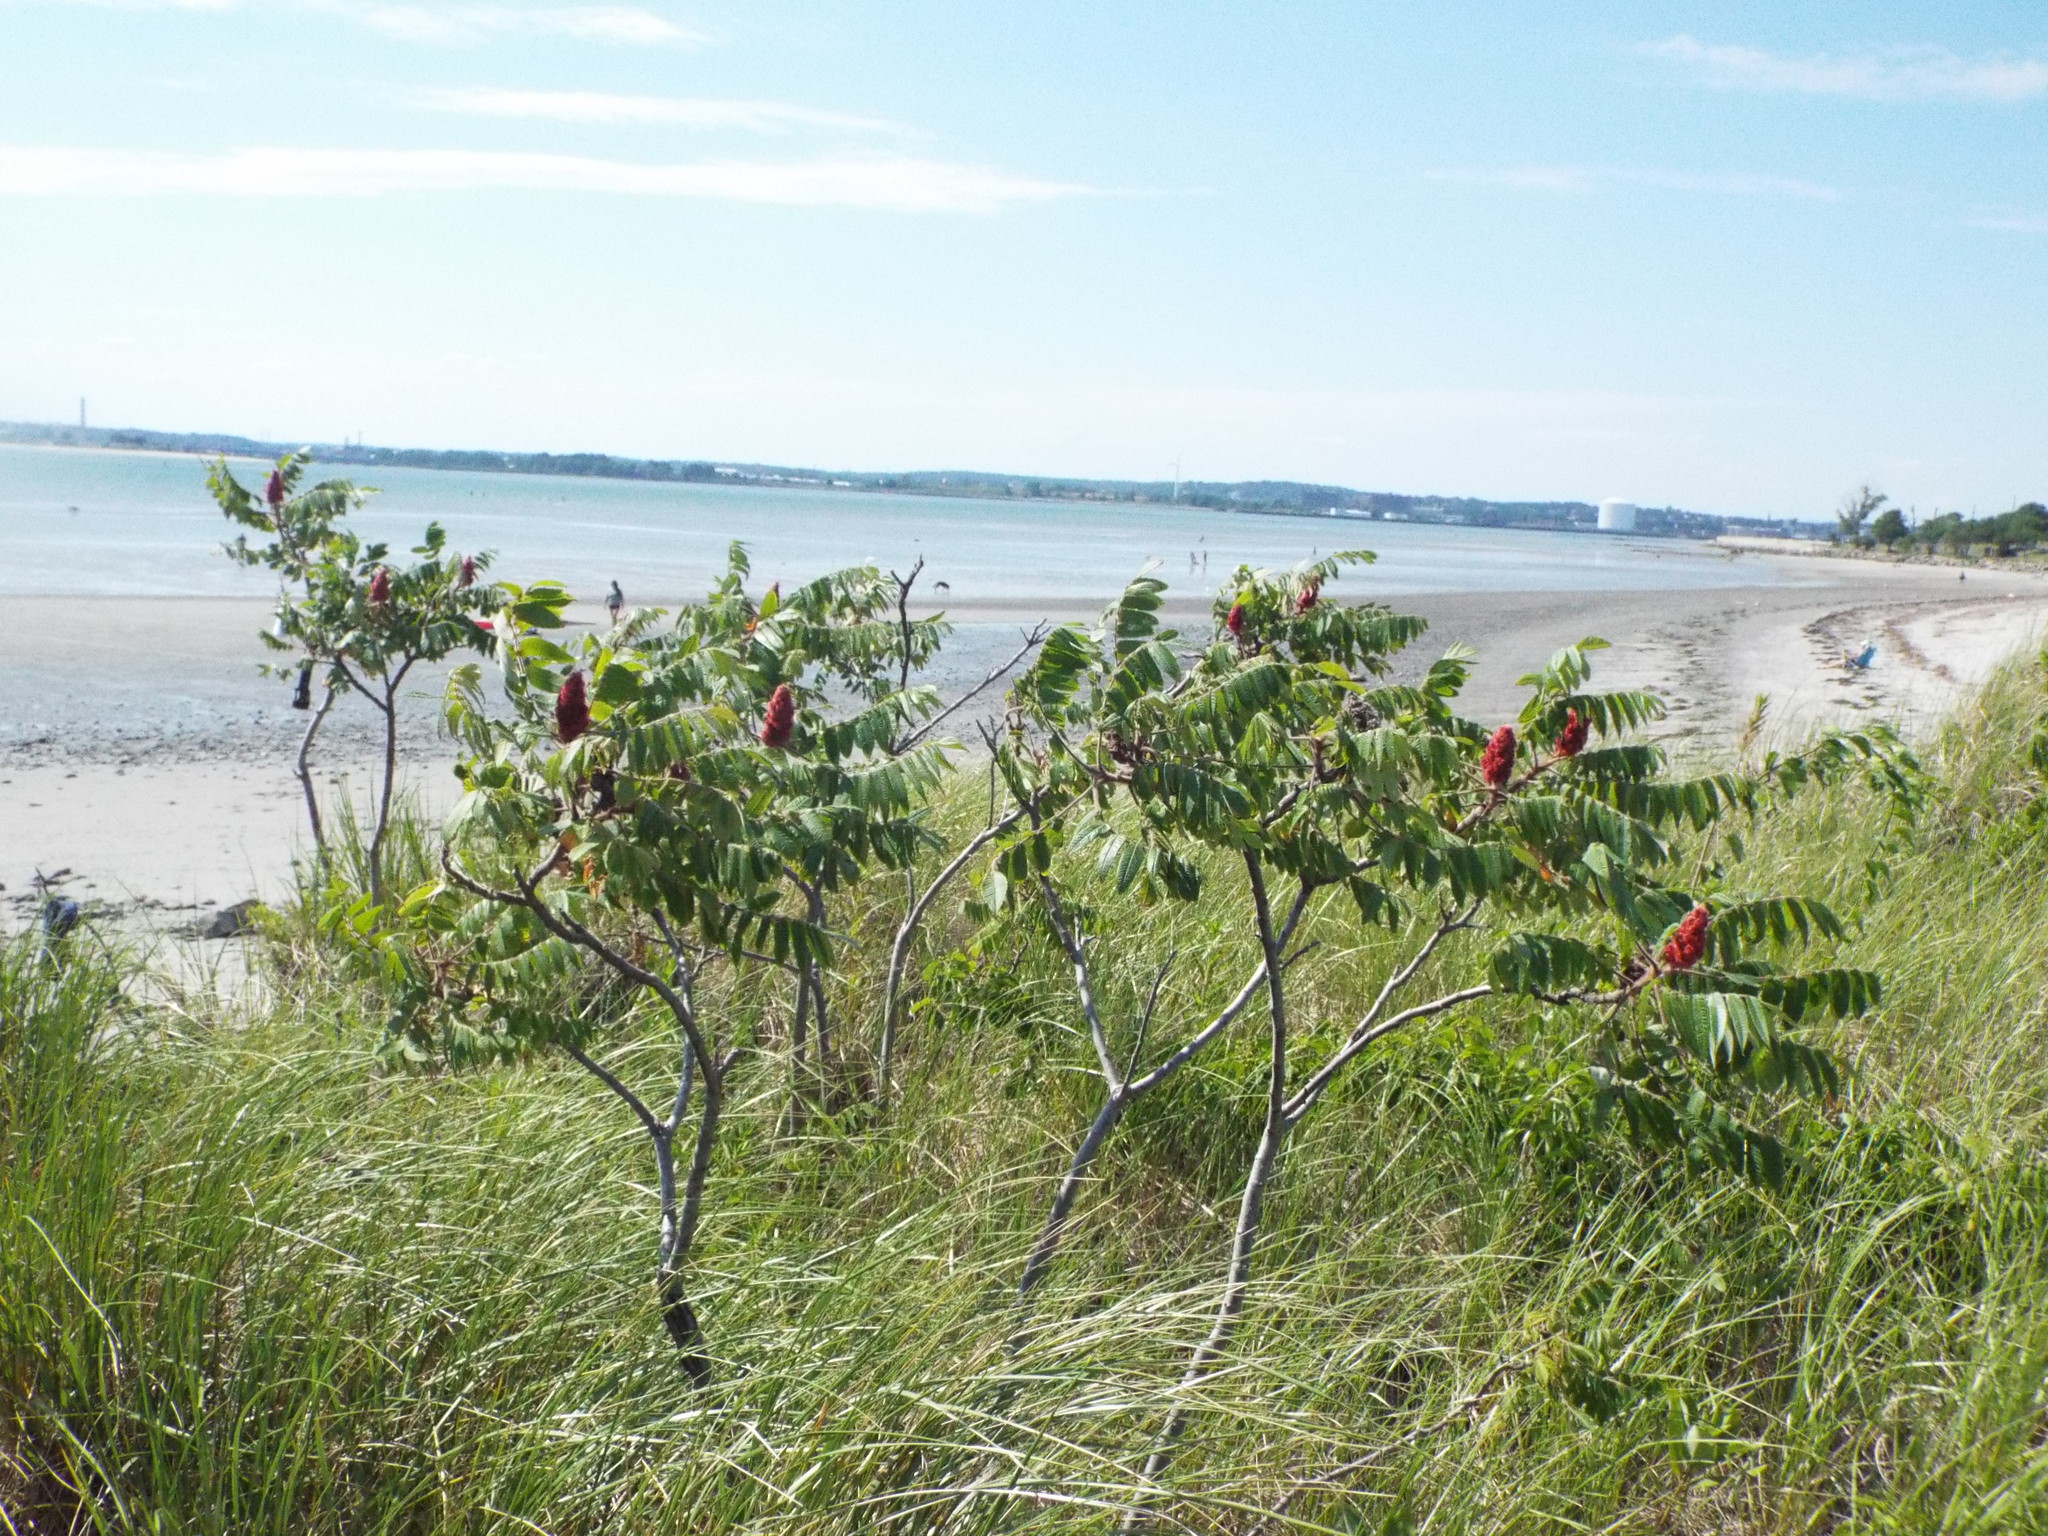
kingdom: Plantae
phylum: Tracheophyta
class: Magnoliopsida
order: Sapindales
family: Anacardiaceae
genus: Rhus
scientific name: Rhus typhina
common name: Staghorn sumac
